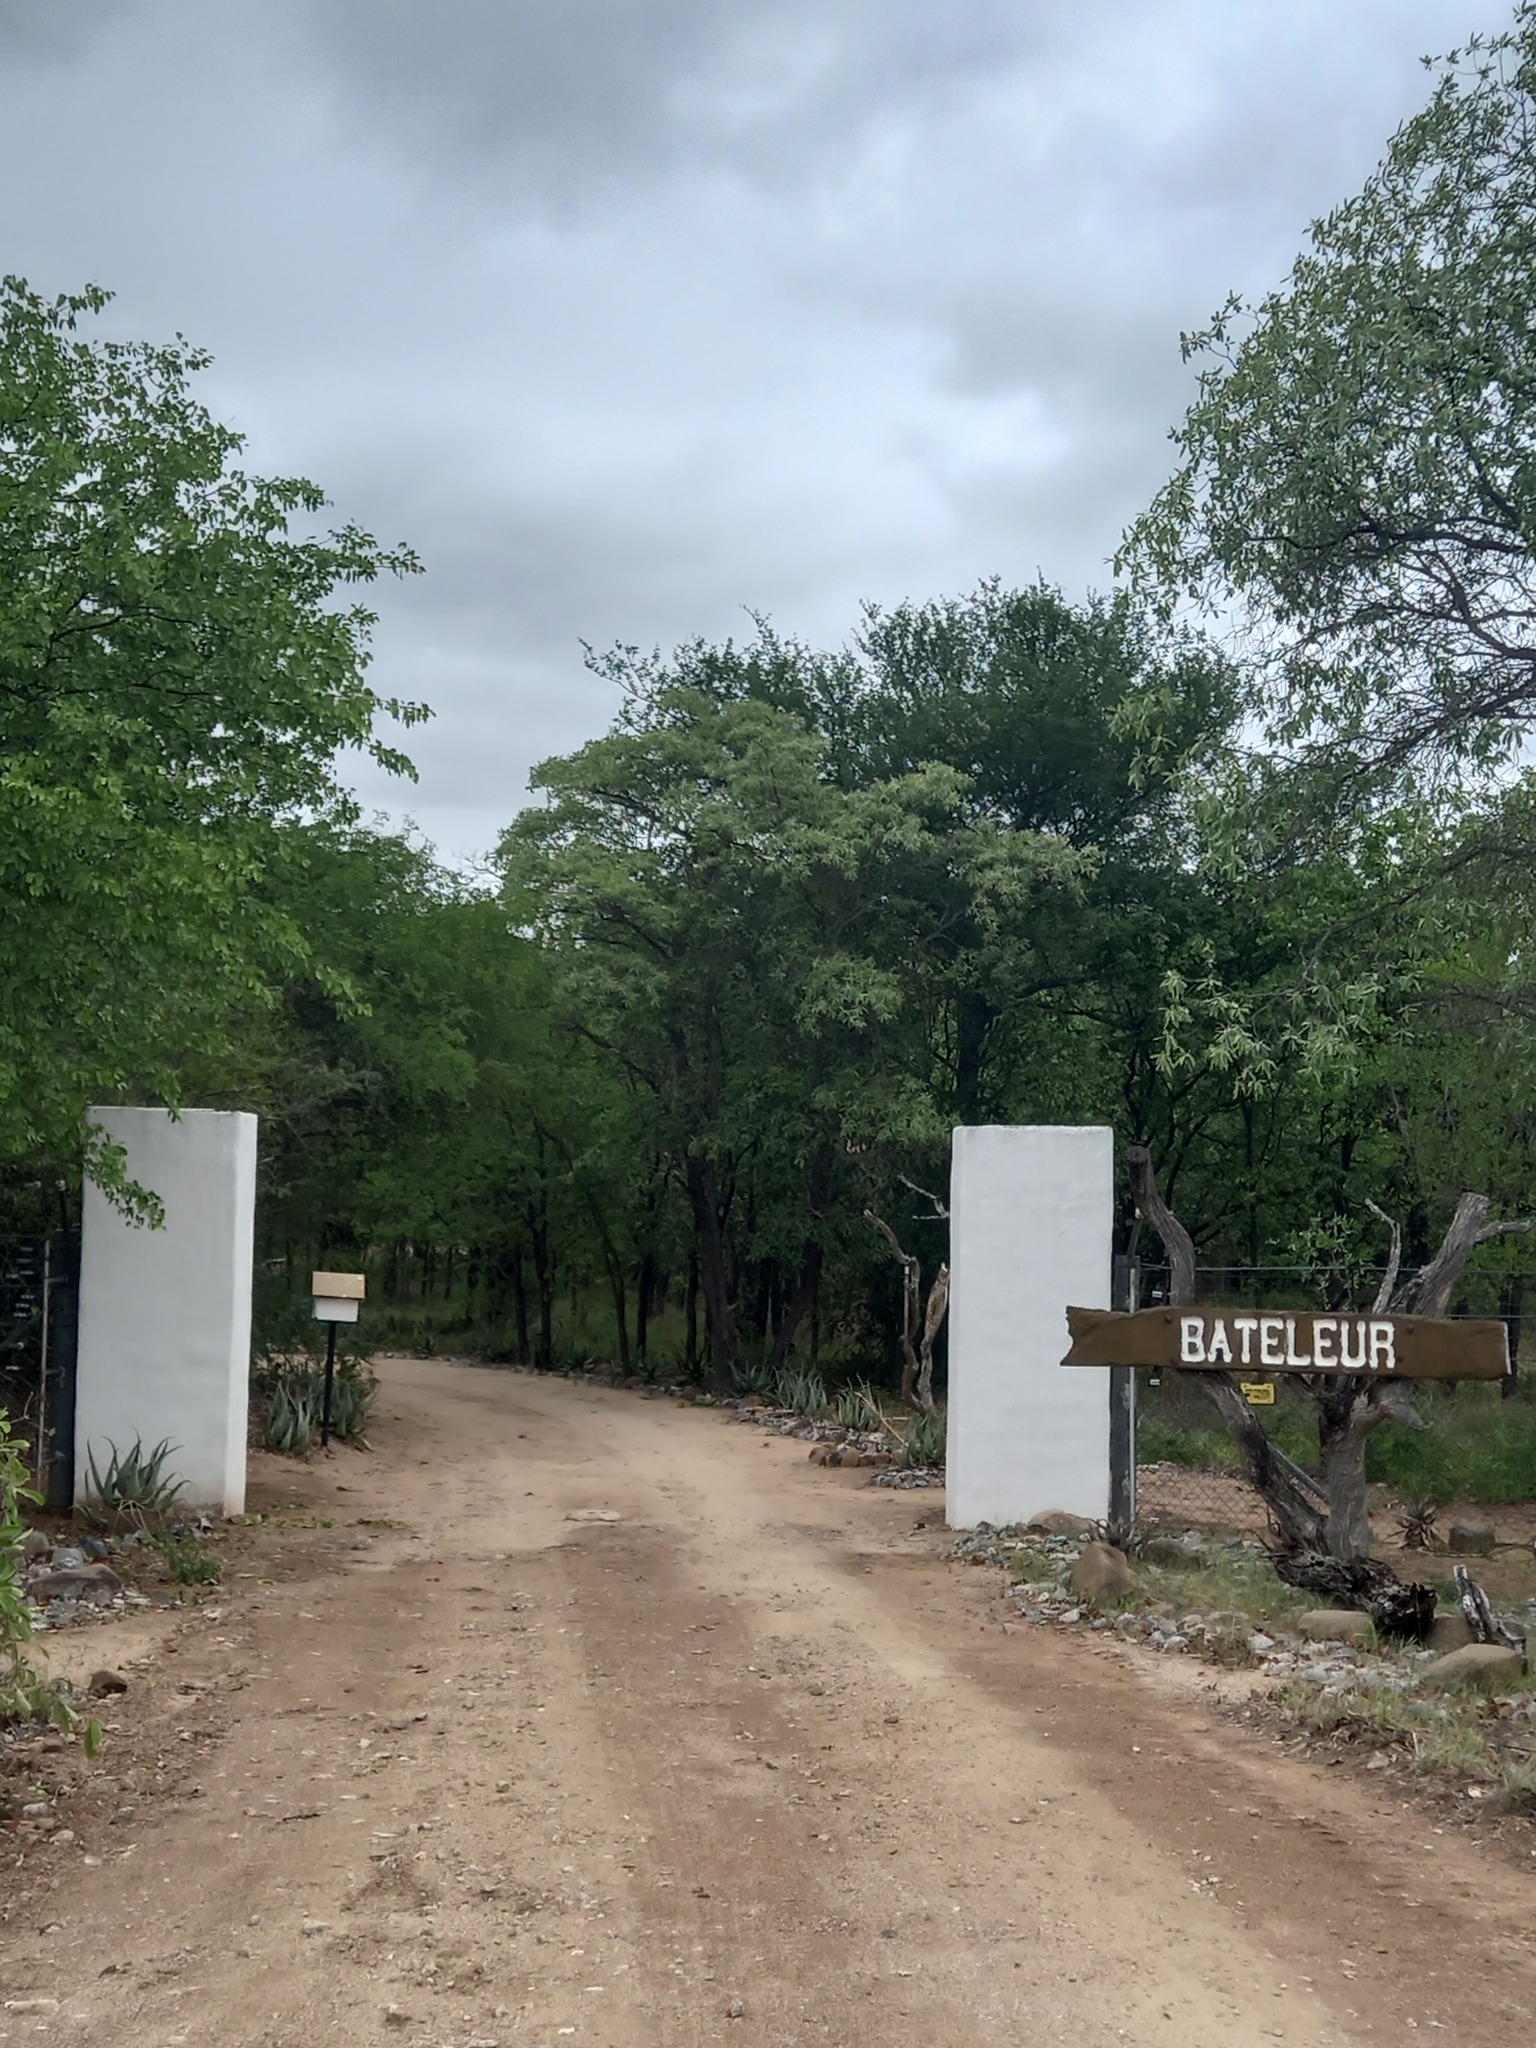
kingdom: Plantae
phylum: Tracheophyta
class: Magnoliopsida
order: Fabales
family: Fabaceae
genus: Colophospermum
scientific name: Colophospermum mopane
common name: Mopane
